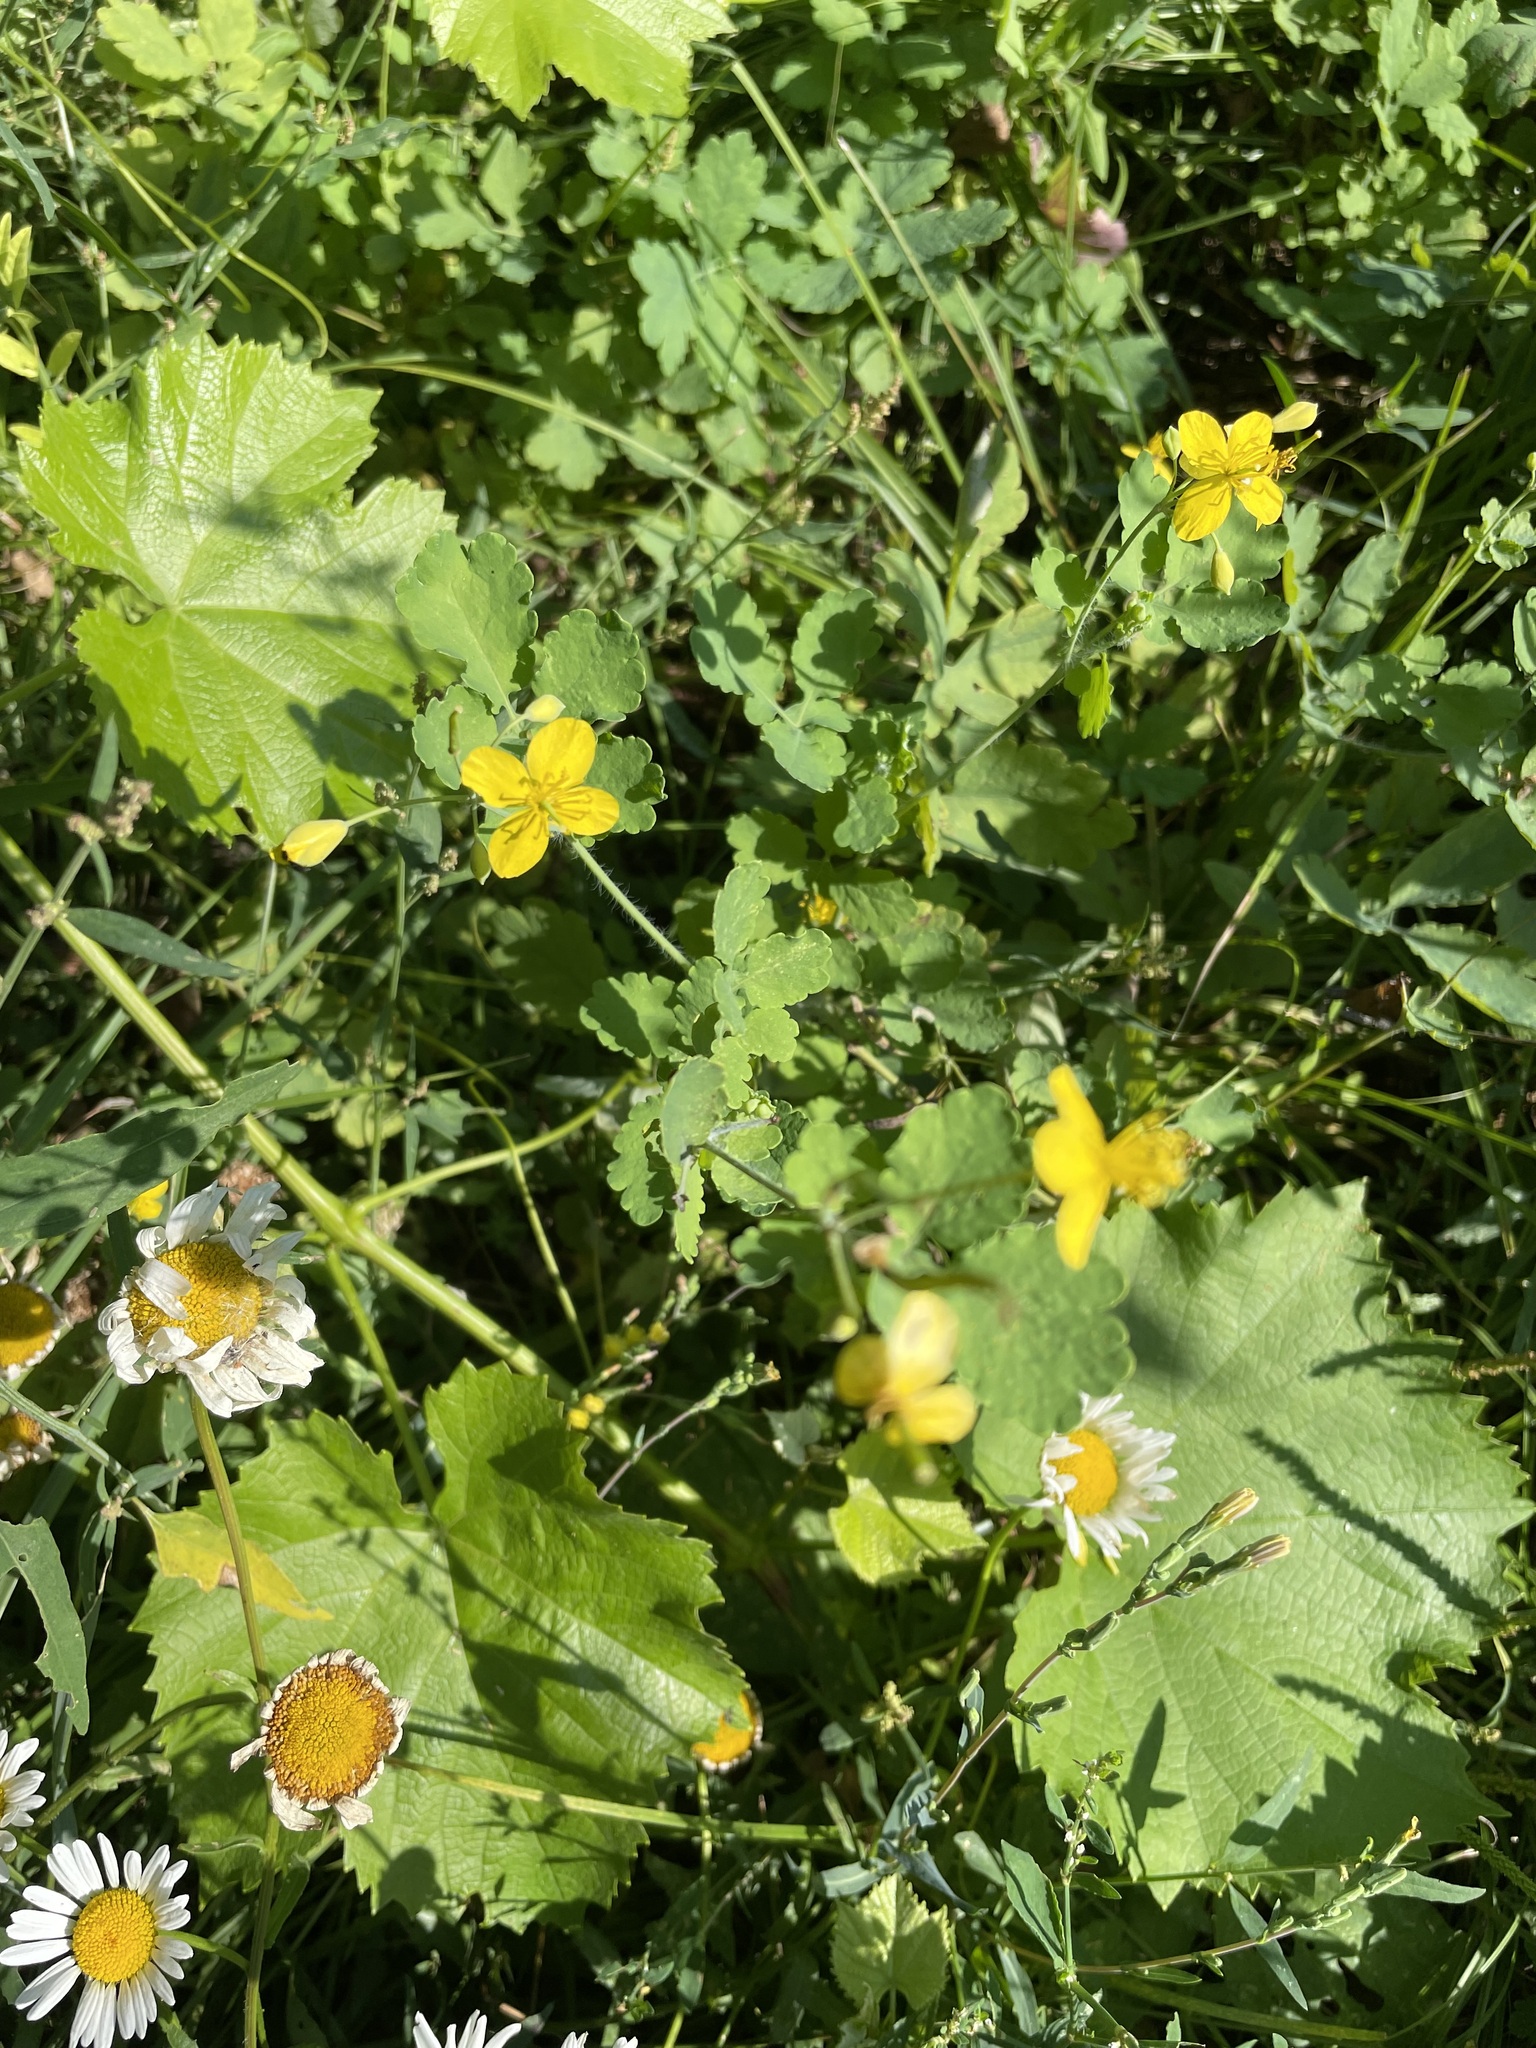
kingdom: Plantae
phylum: Tracheophyta
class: Magnoliopsida
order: Ranunculales
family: Papaveraceae
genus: Chelidonium
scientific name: Chelidonium majus
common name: Greater celandine
